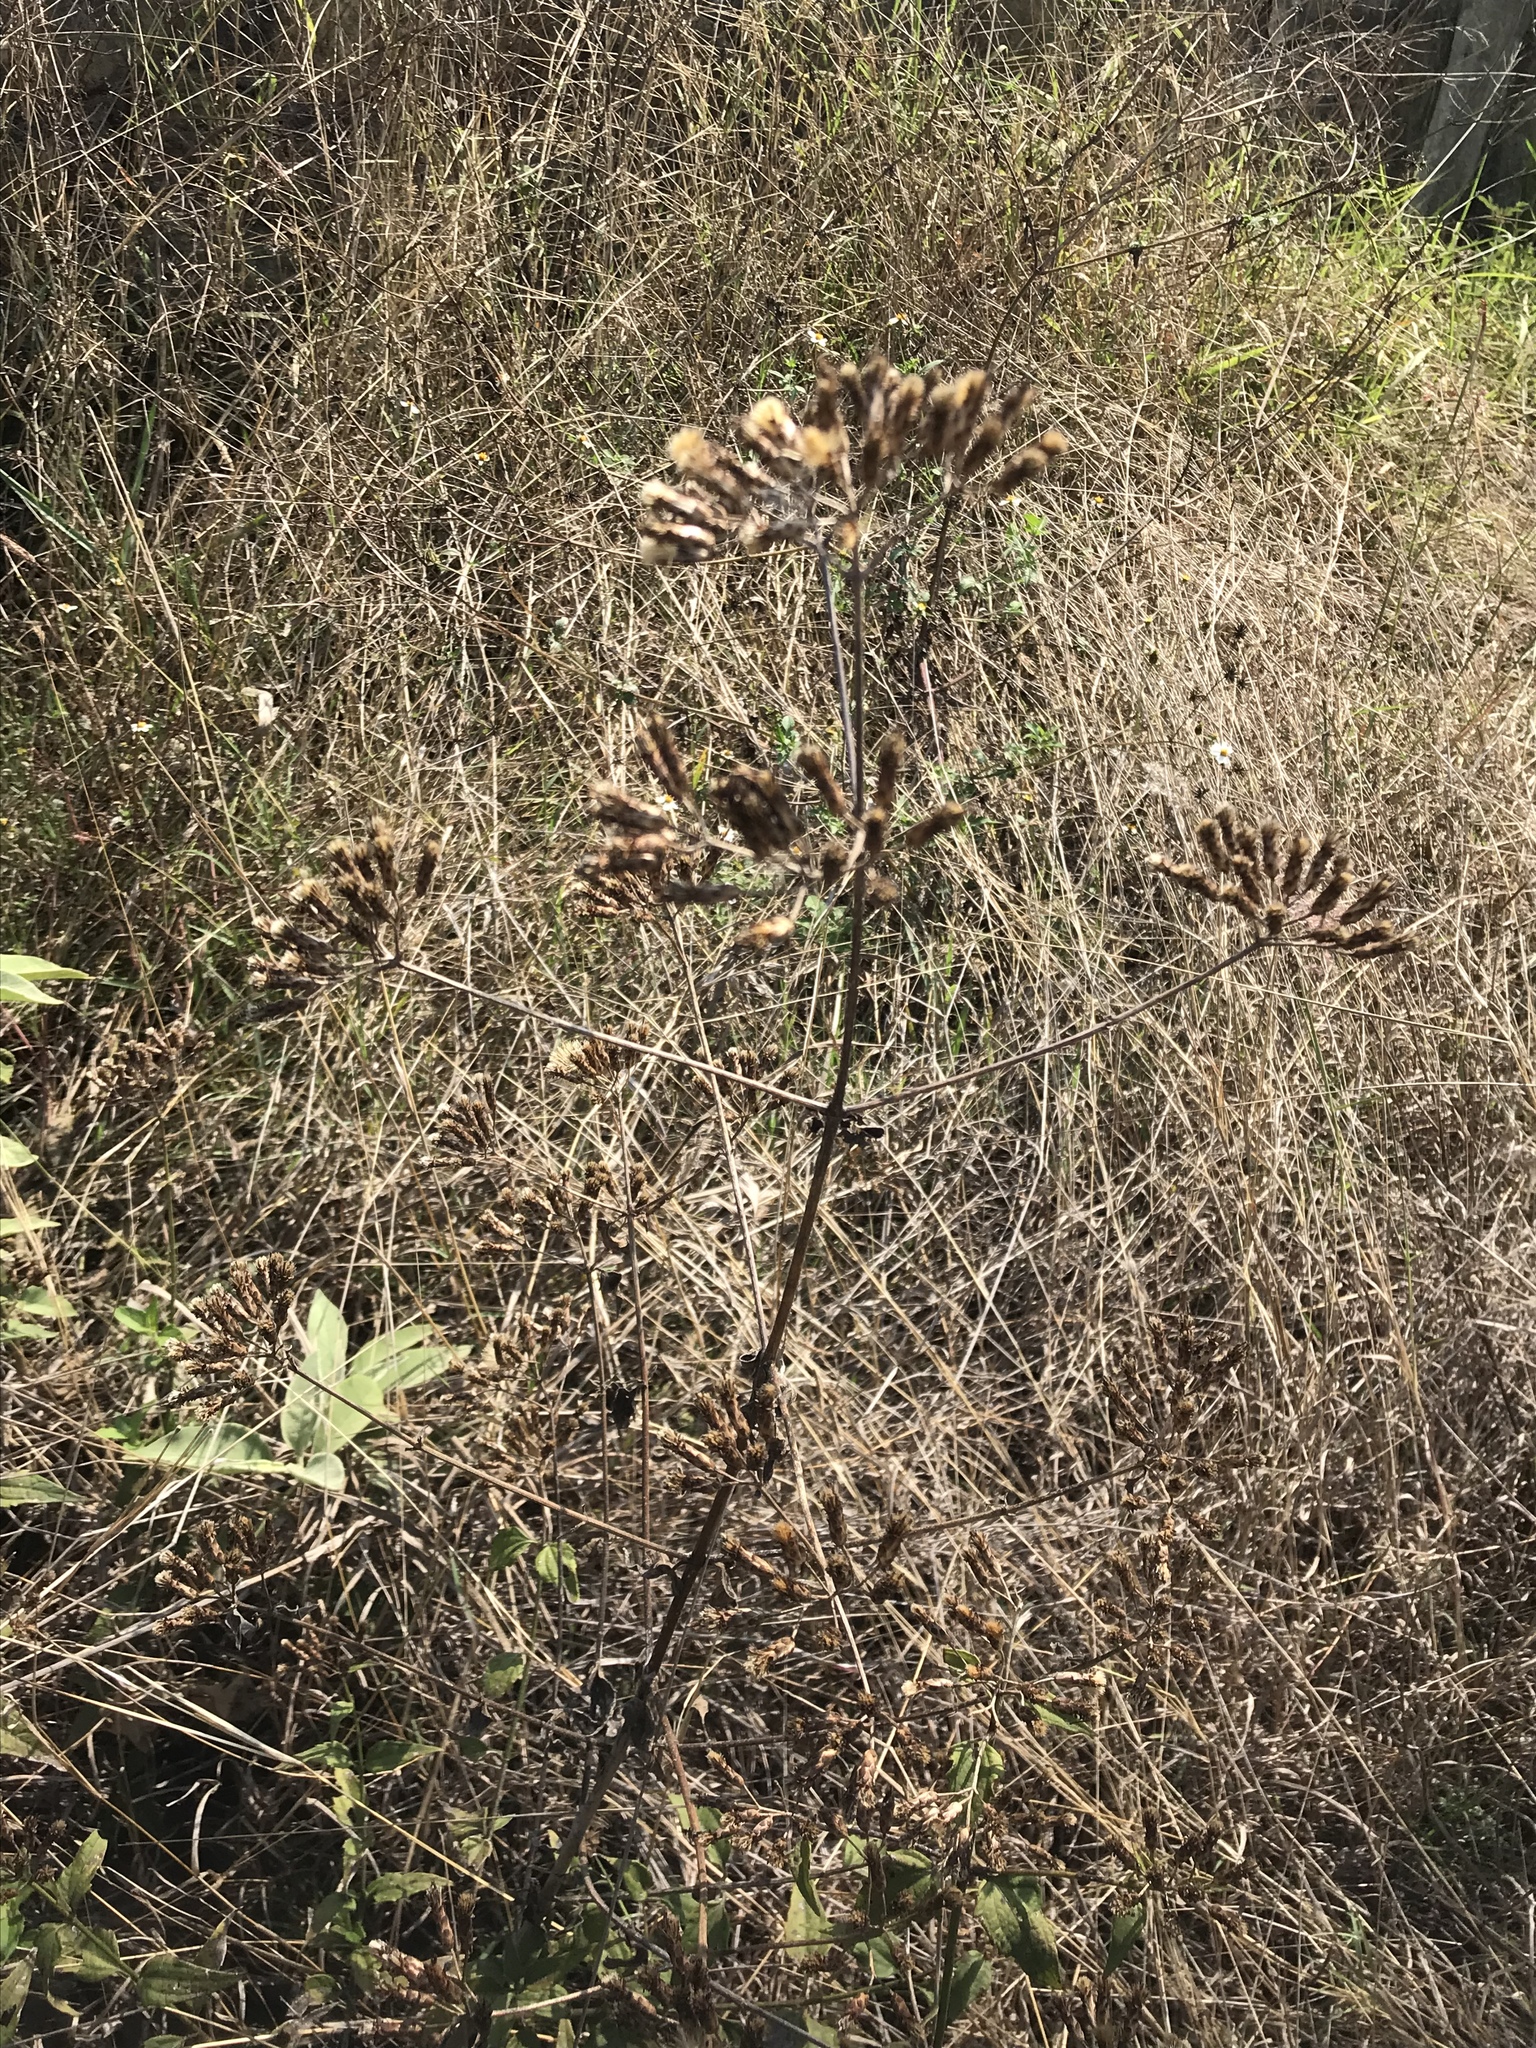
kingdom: Plantae
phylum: Tracheophyta
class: Magnoliopsida
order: Asterales
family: Asteraceae
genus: Chromolaena
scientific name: Chromolaena odorata
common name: Siamweed
